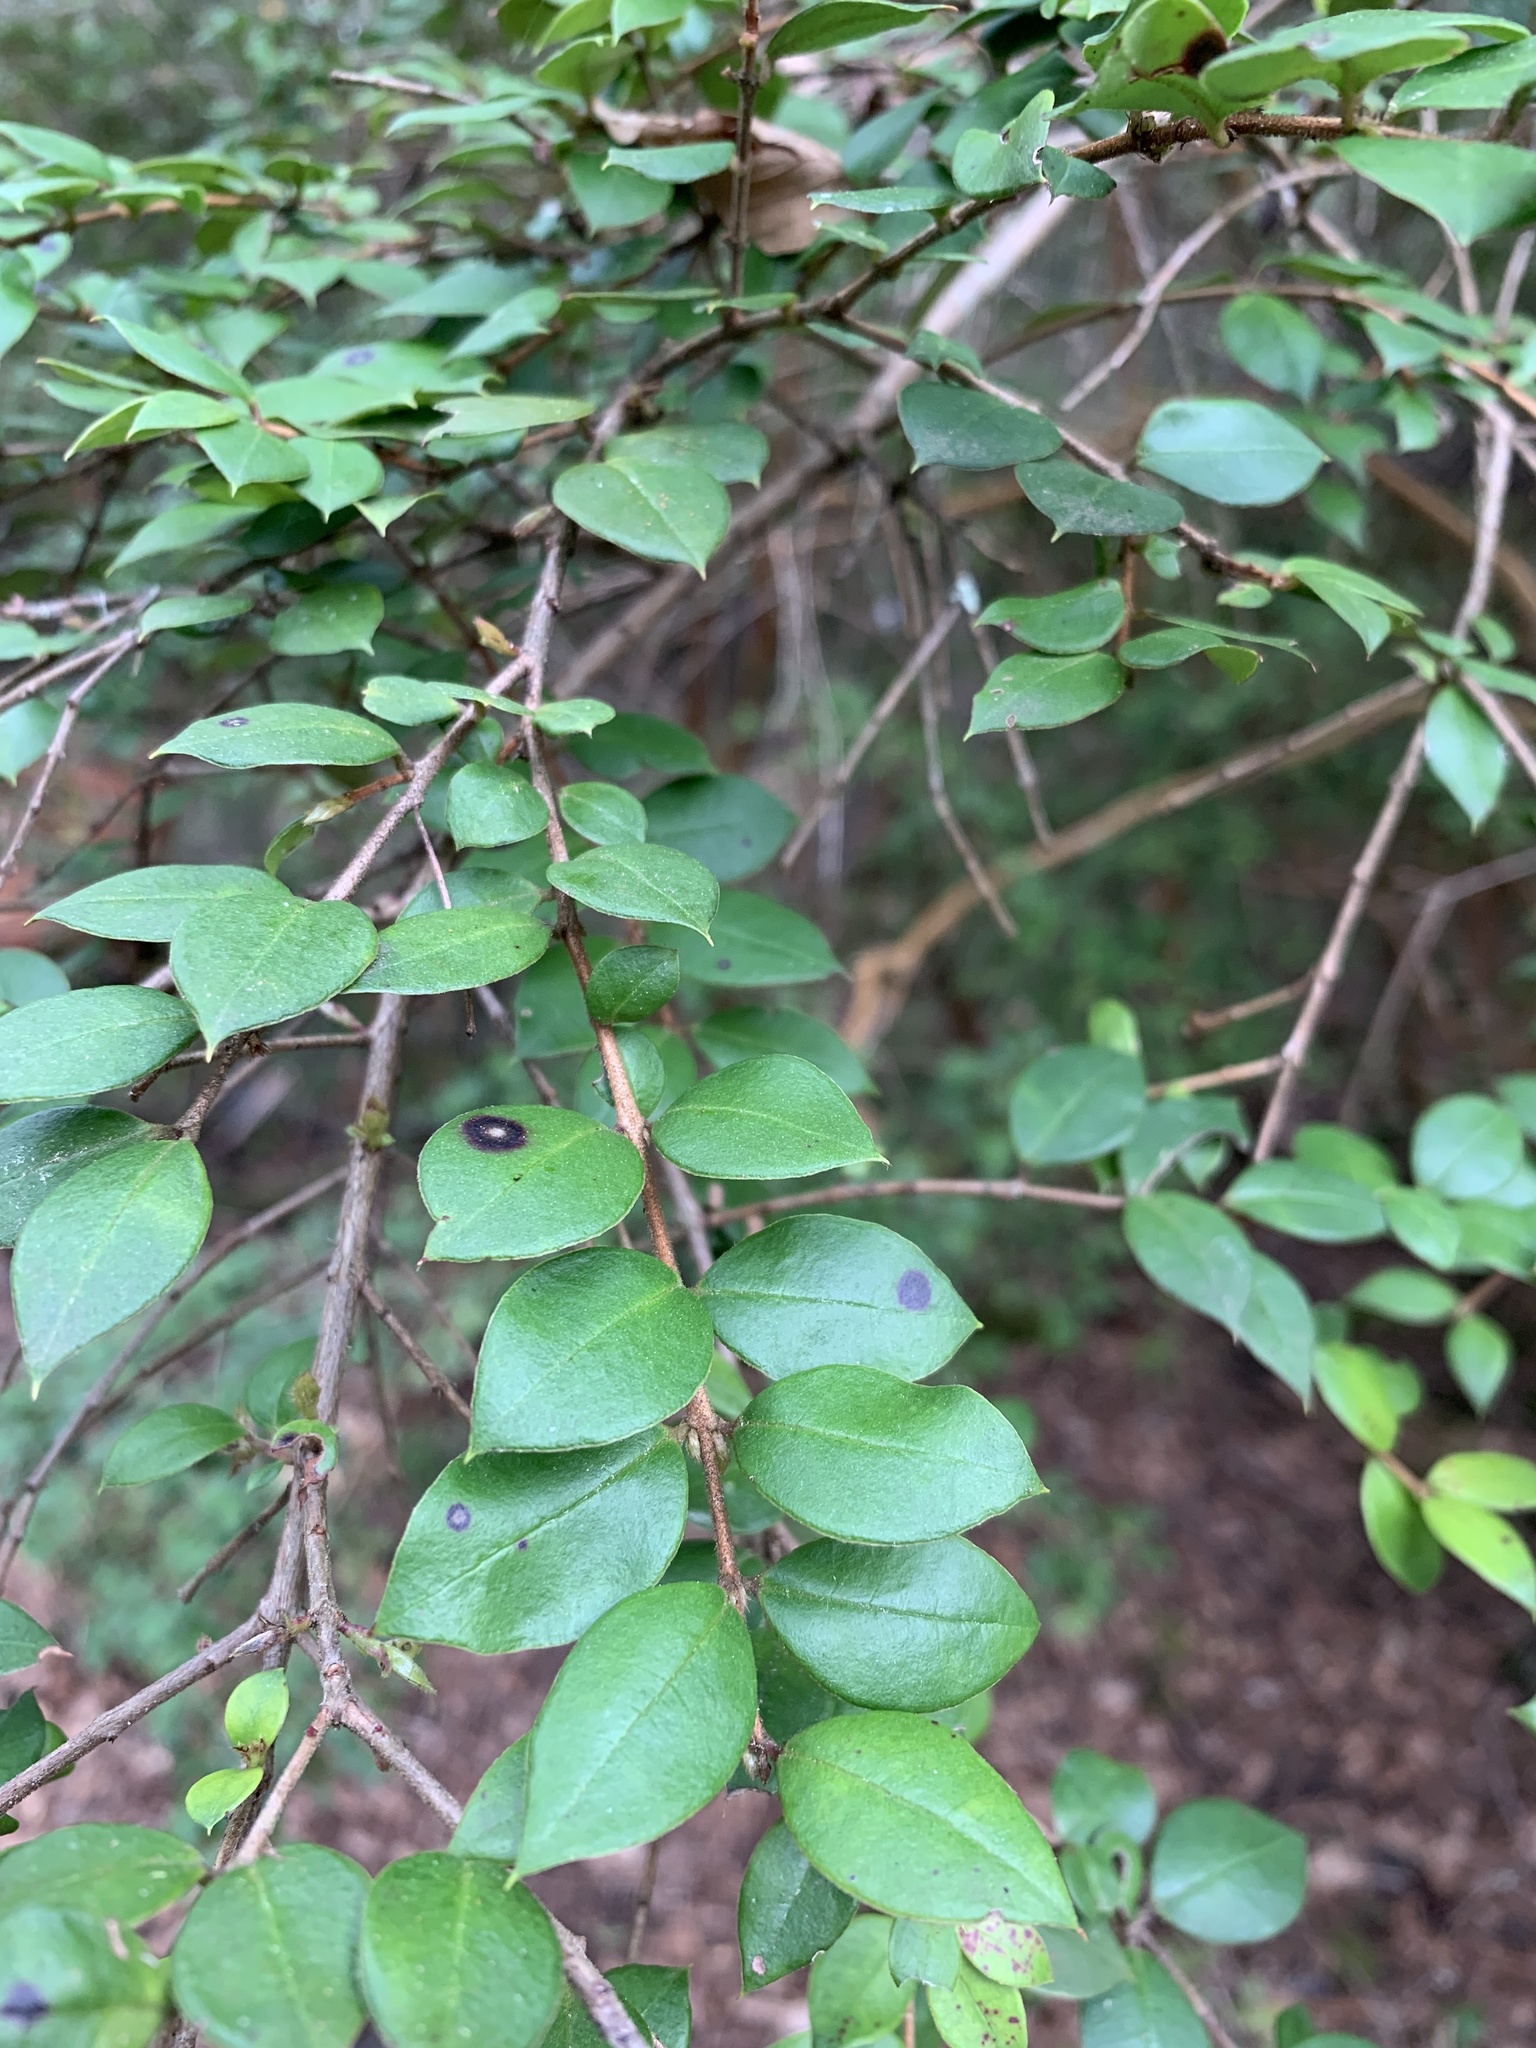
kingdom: Plantae
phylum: Tracheophyta
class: Magnoliopsida
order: Myrtales
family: Myrtaceae
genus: Luma
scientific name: Luma apiculata
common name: Chilean myrtle
